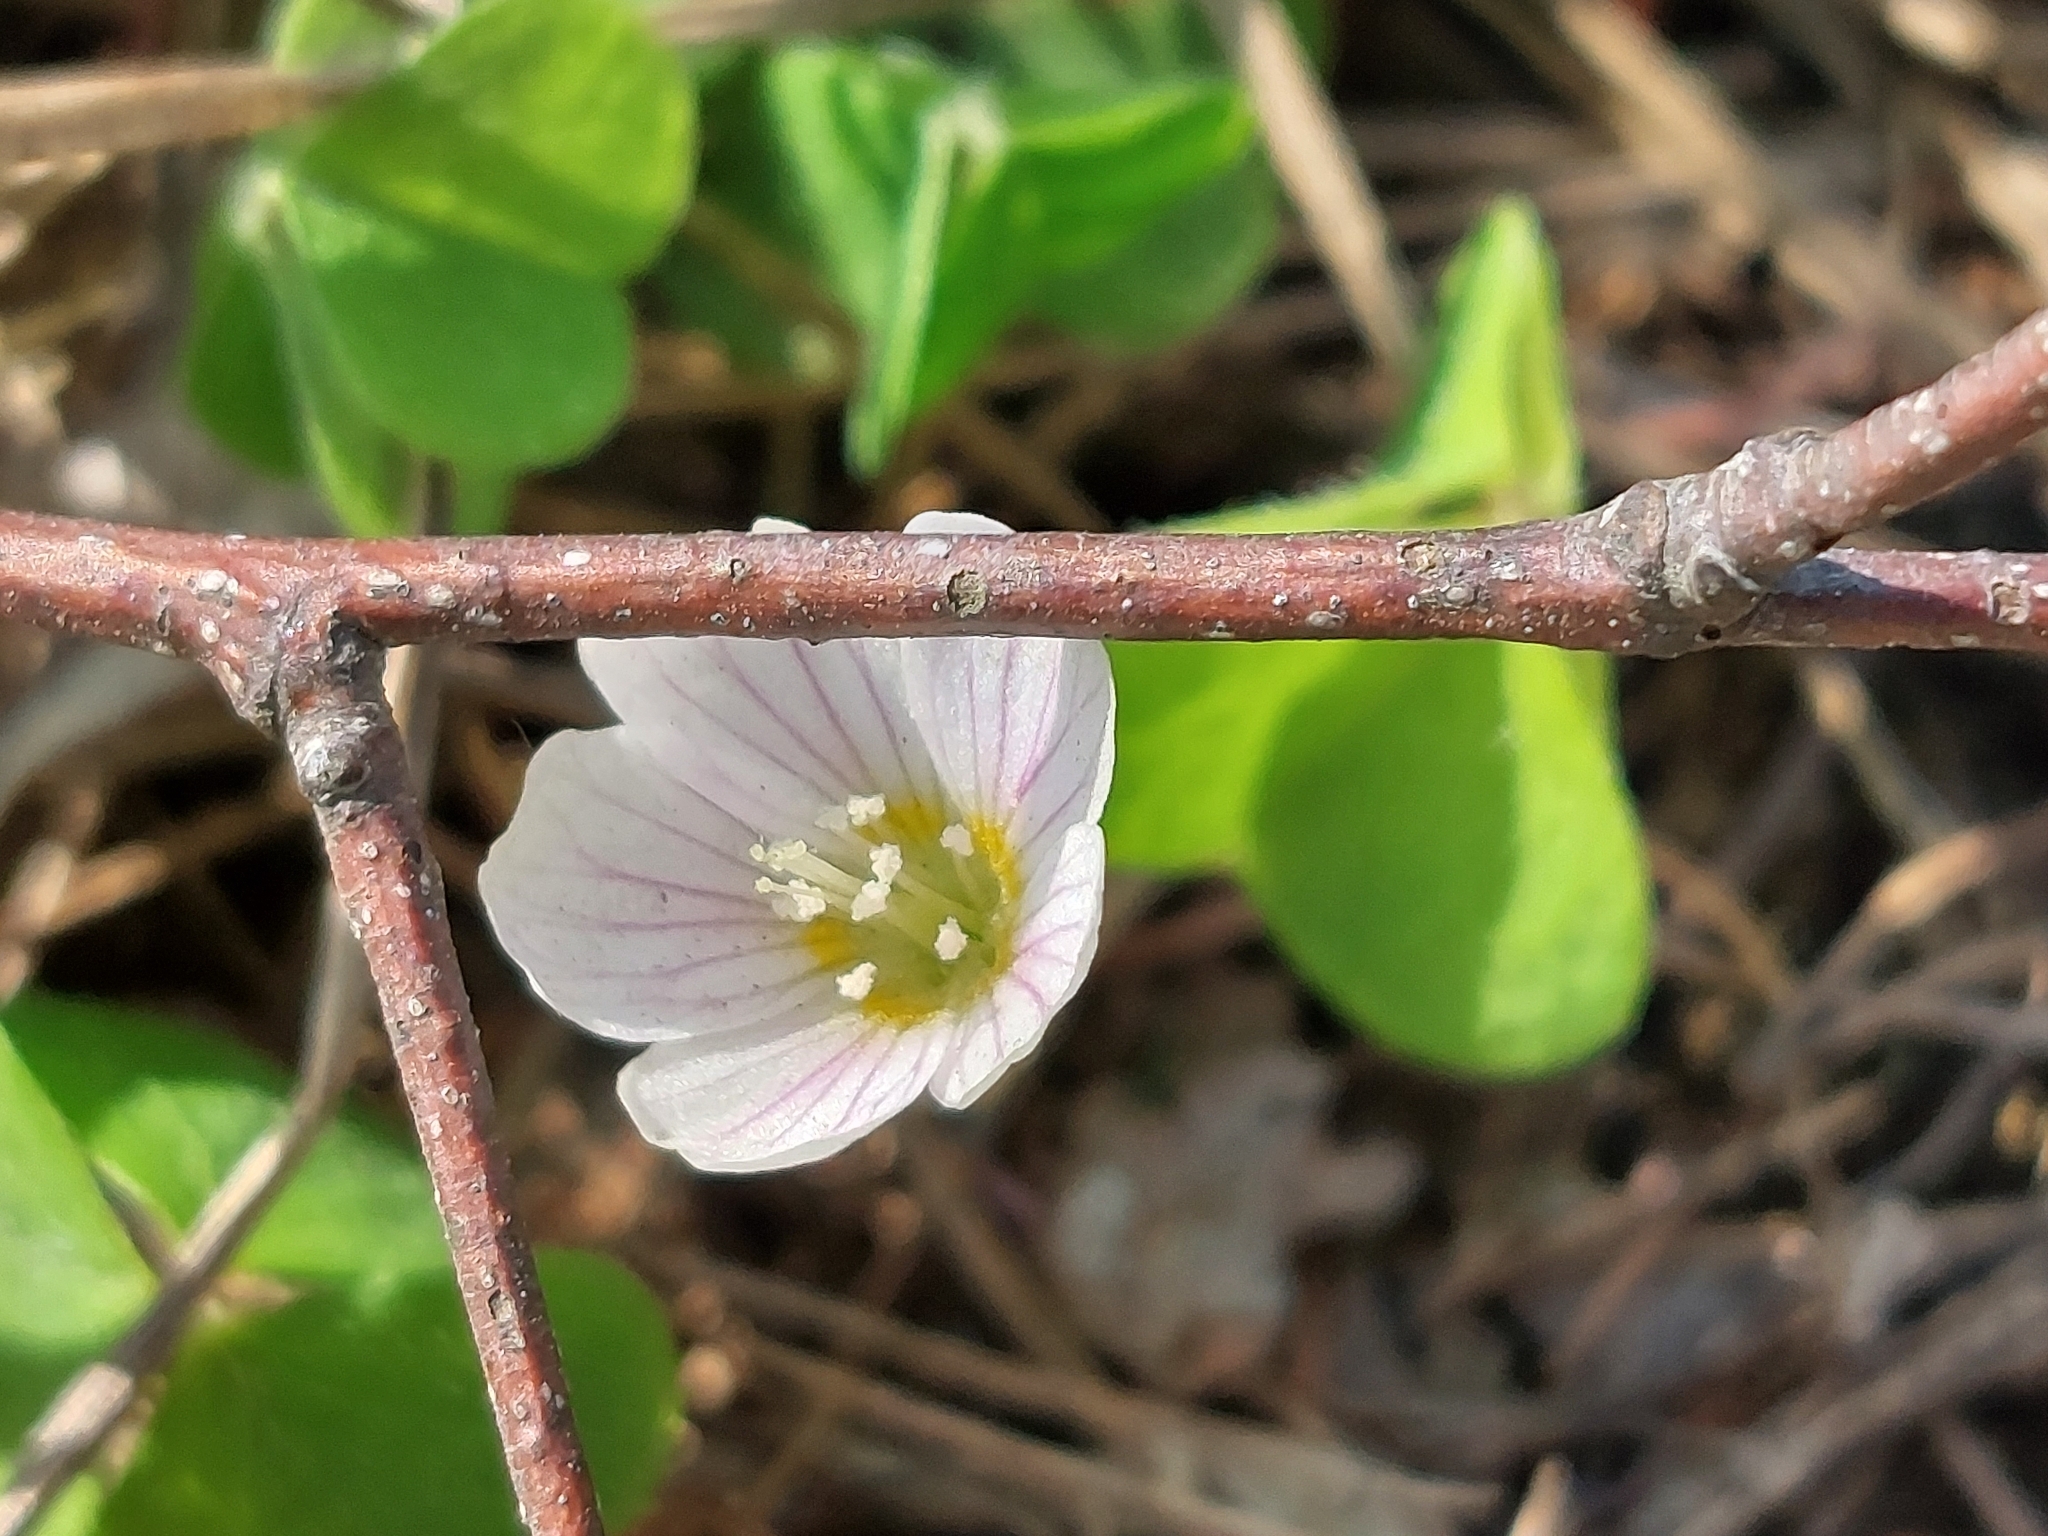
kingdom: Plantae
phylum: Tracheophyta
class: Magnoliopsida
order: Oxalidales
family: Oxalidaceae
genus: Oxalis
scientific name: Oxalis acetosella
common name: Wood-sorrel
